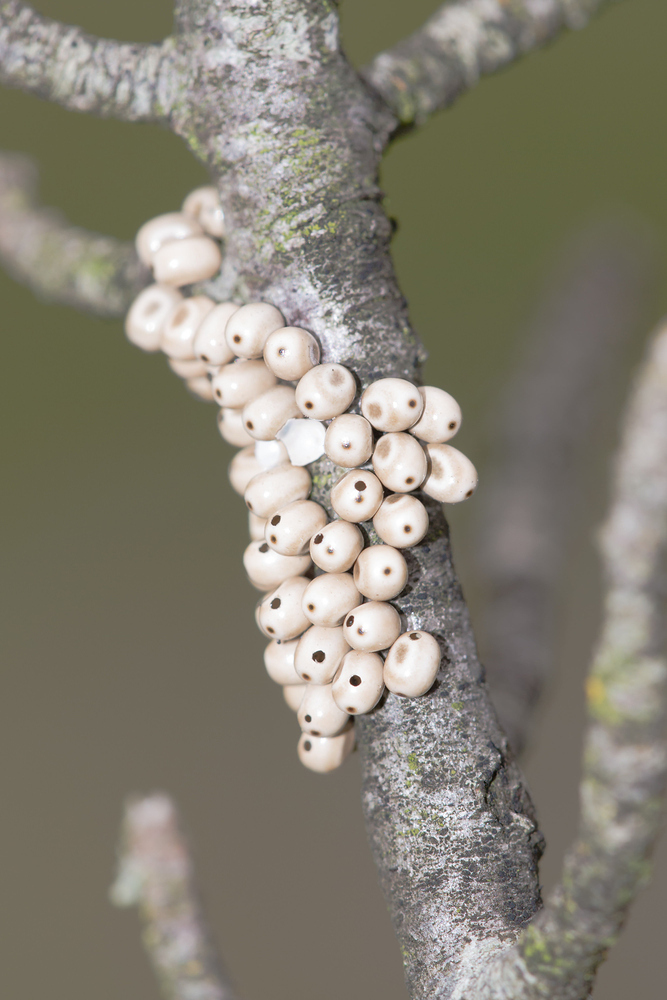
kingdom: Animalia
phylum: Arthropoda
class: Insecta
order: Lepidoptera
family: Lasiocampidae
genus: Macrothylacia
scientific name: Macrothylacia rubi
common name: Fox moth
